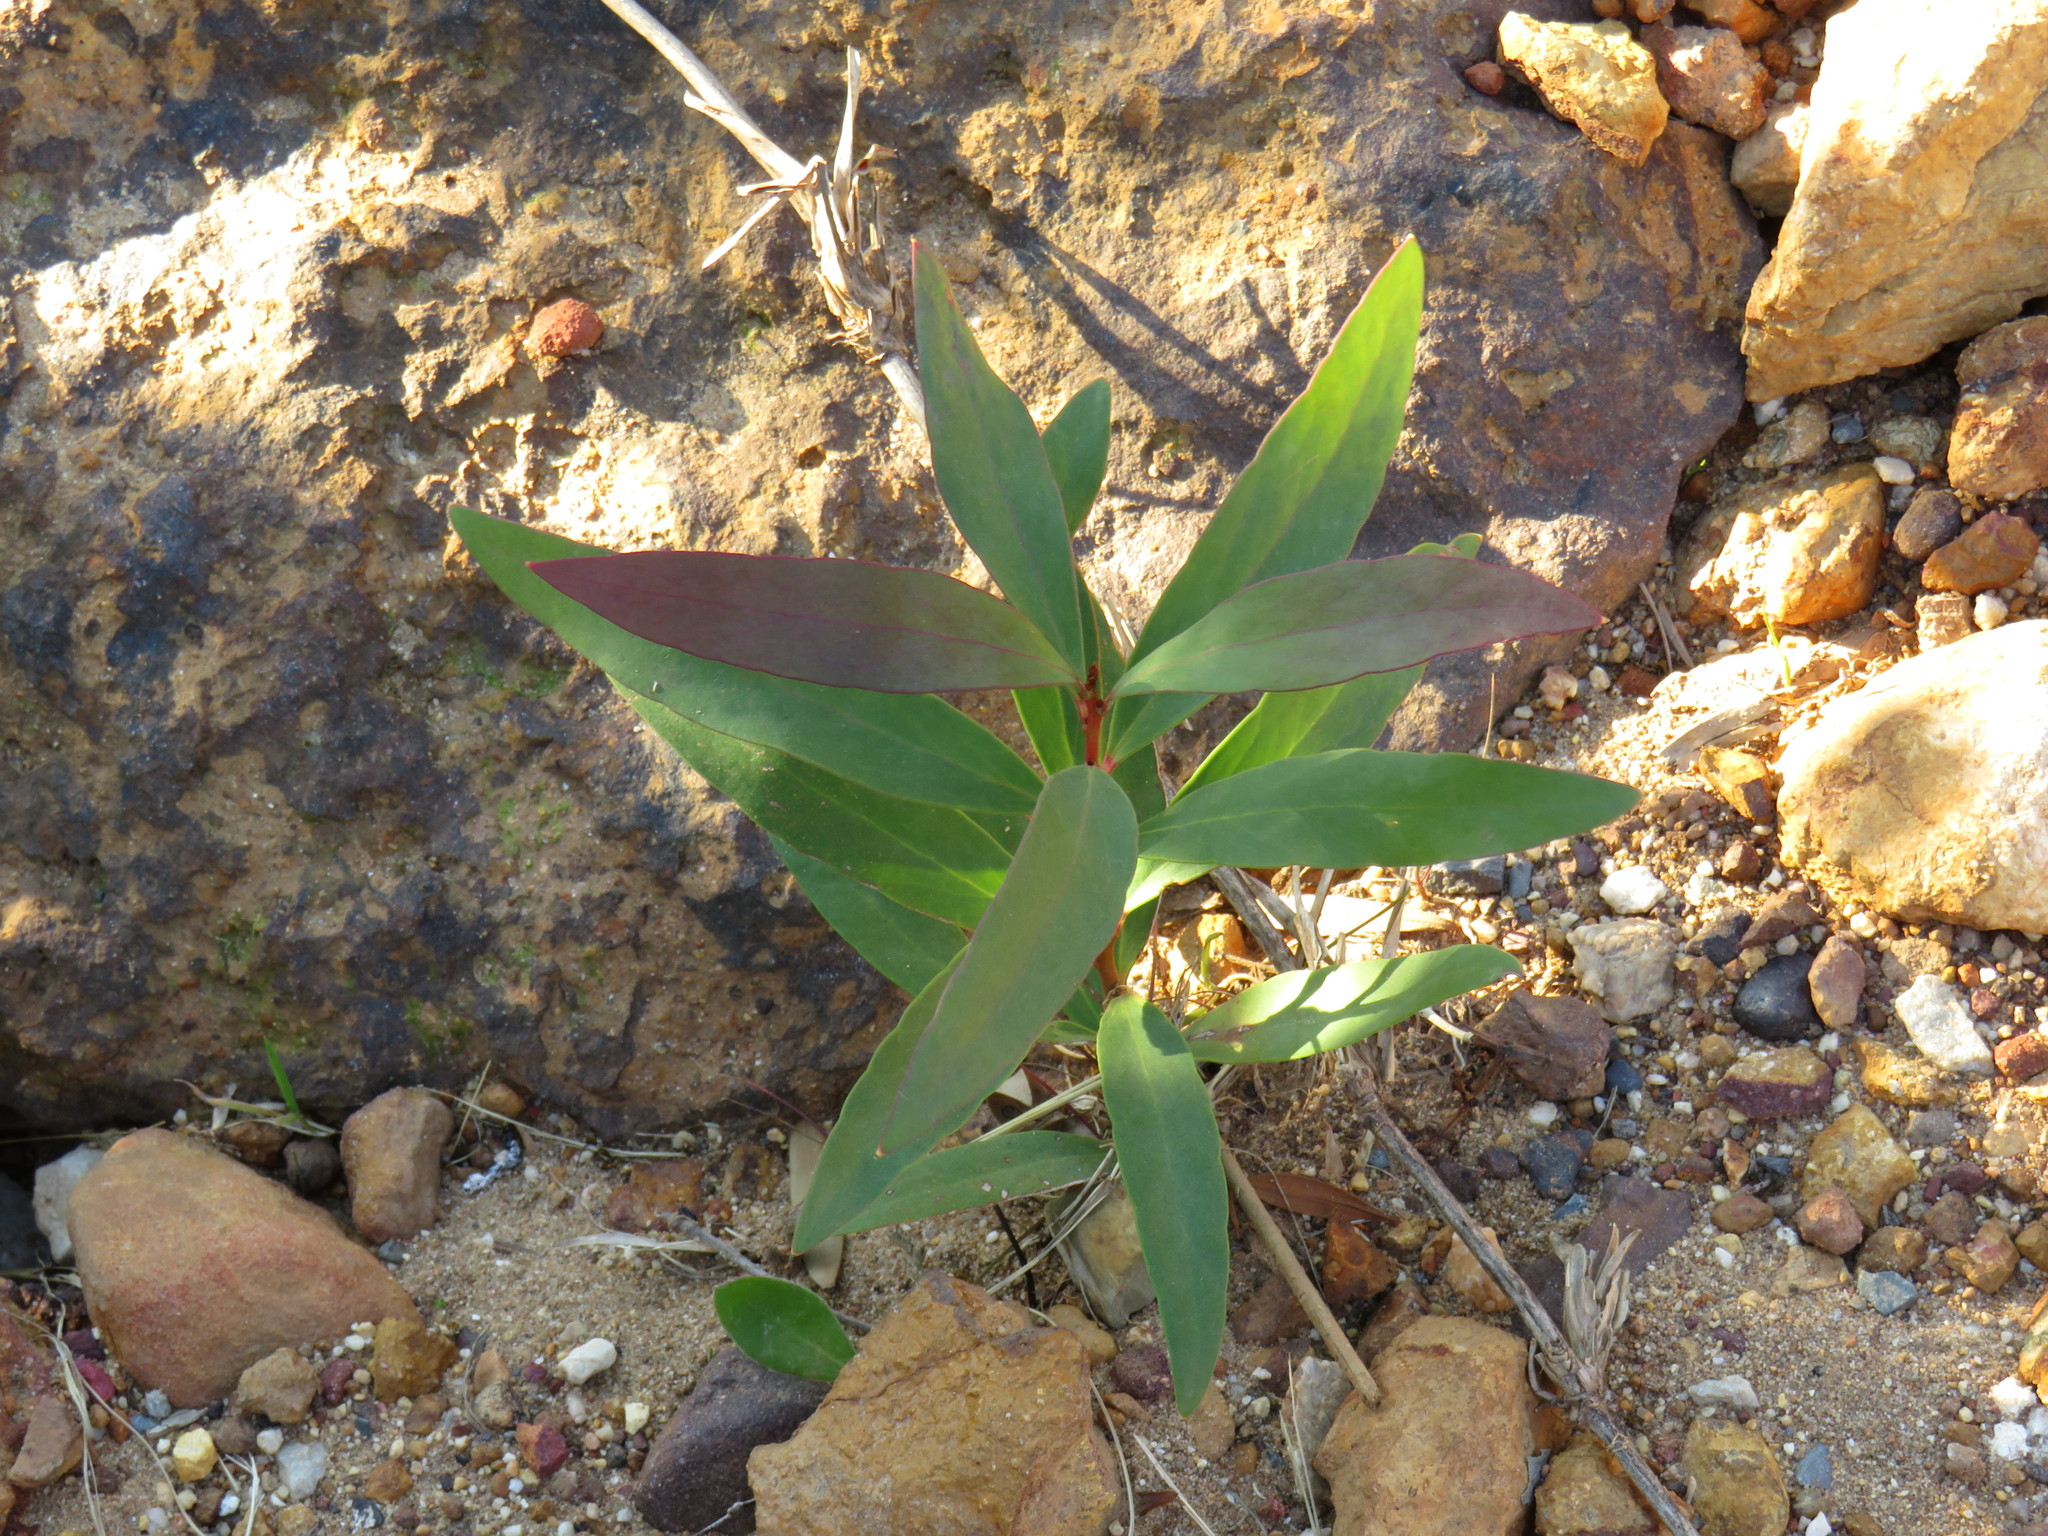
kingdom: Plantae
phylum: Tracheophyta
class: Magnoliopsida
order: Proteales
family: Proteaceae
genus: Hakea
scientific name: Hakea salicifolia
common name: Willow hakea
